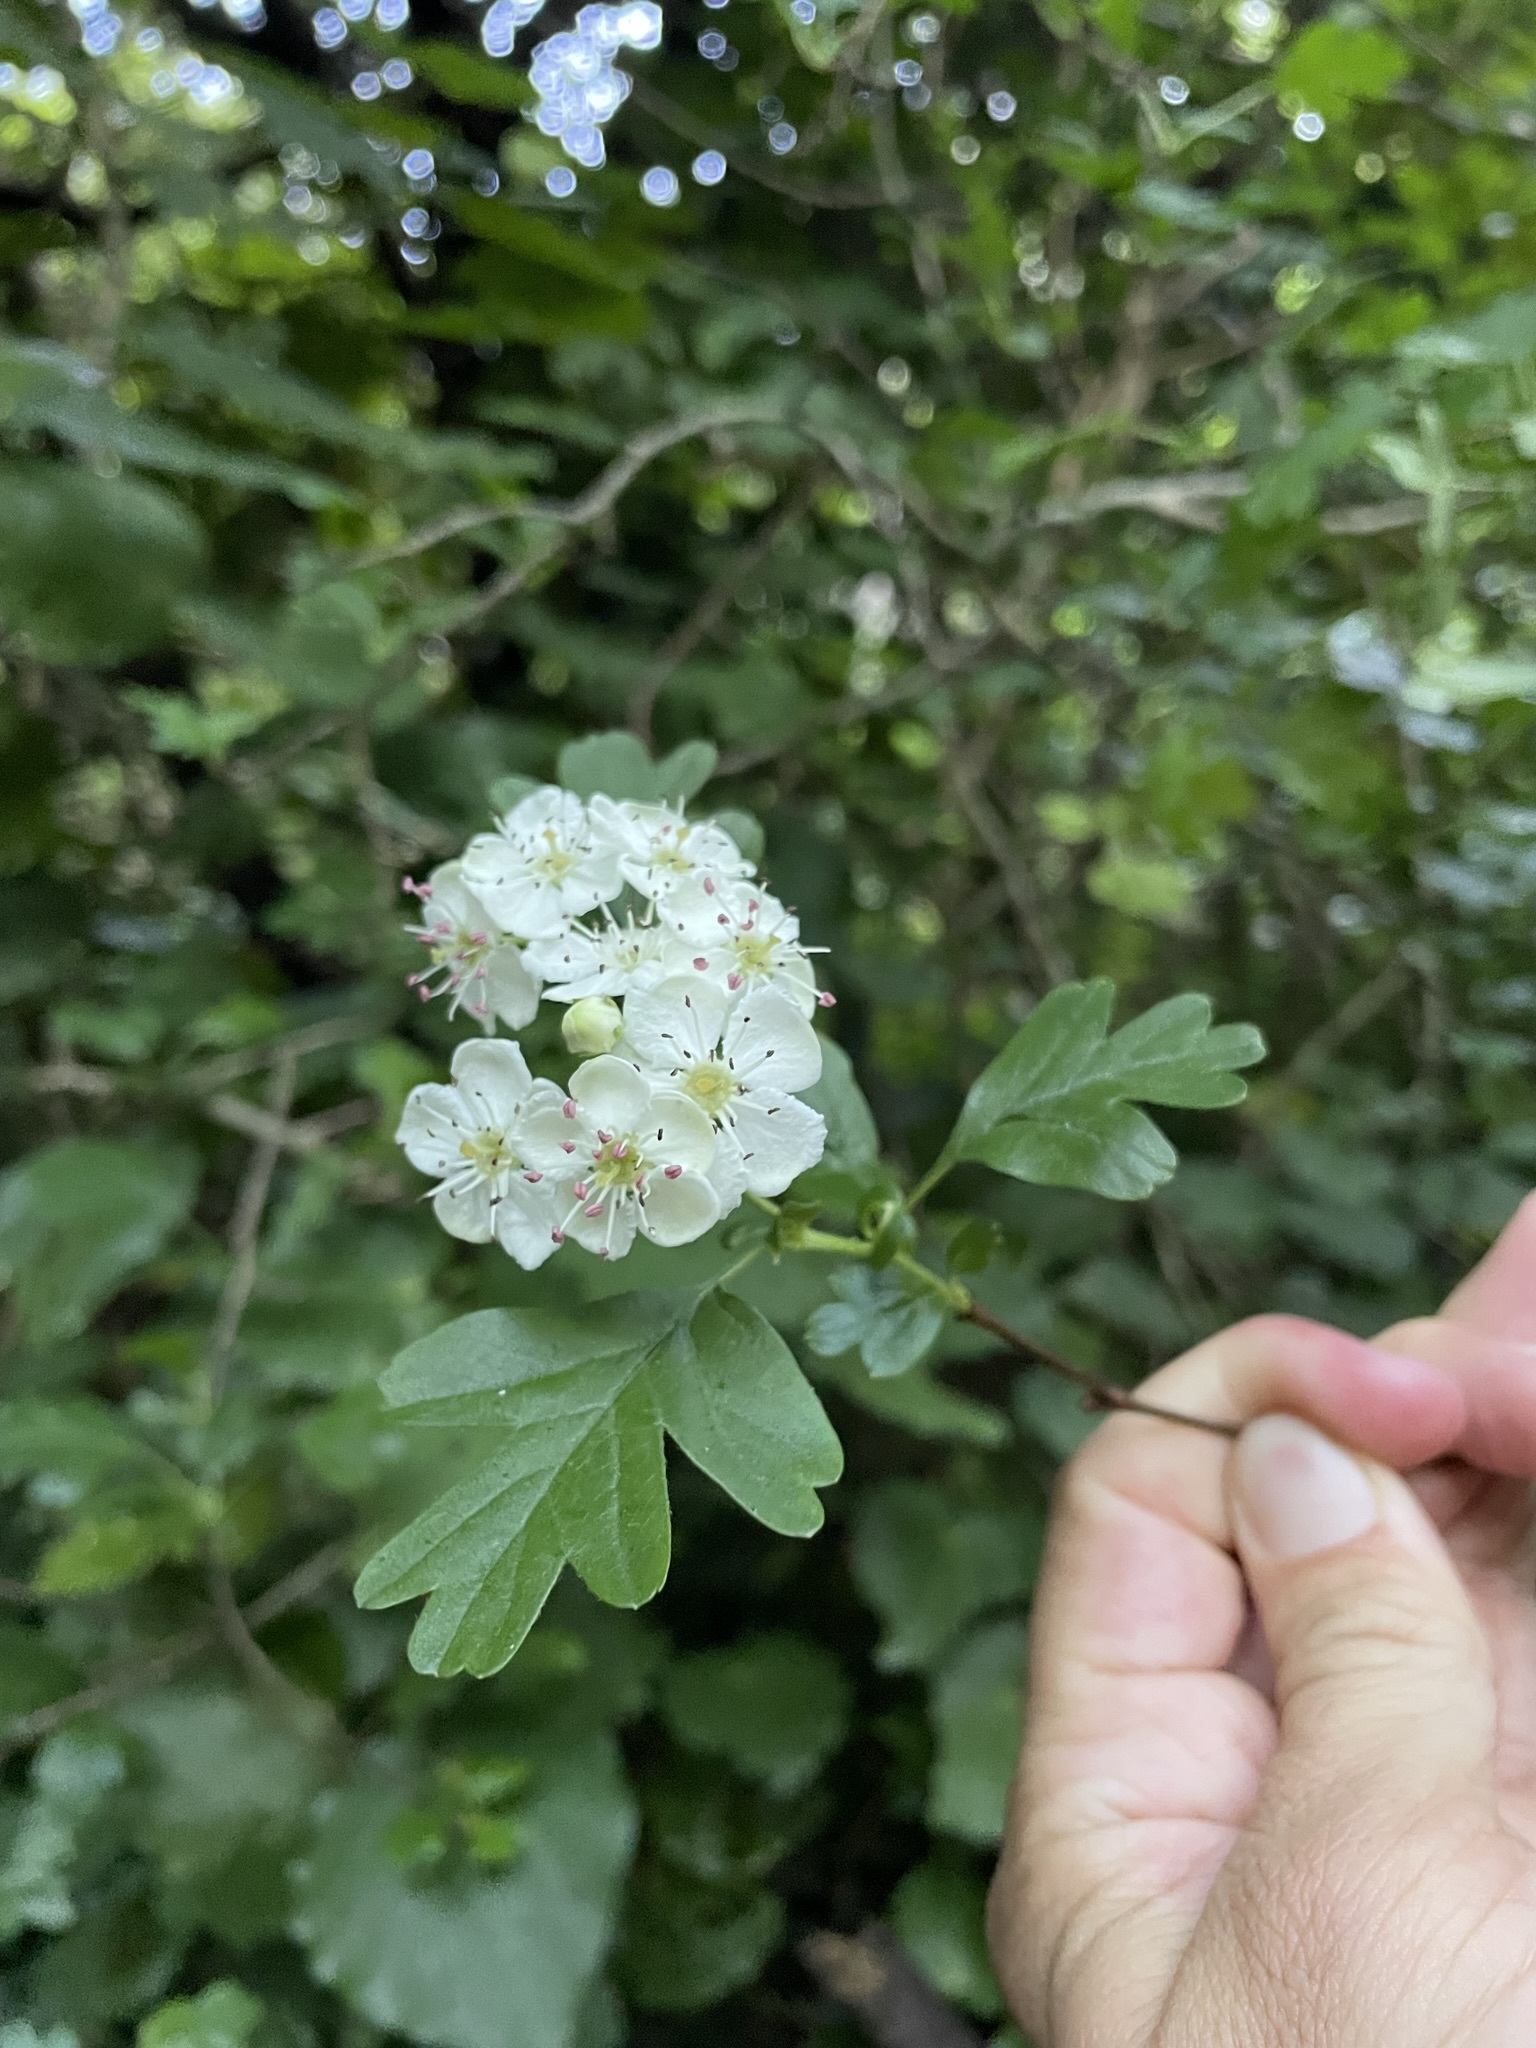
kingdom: Plantae
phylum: Tracheophyta
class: Magnoliopsida
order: Rosales
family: Rosaceae
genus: Crataegus
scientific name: Crataegus monogyna
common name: Hawthorn
